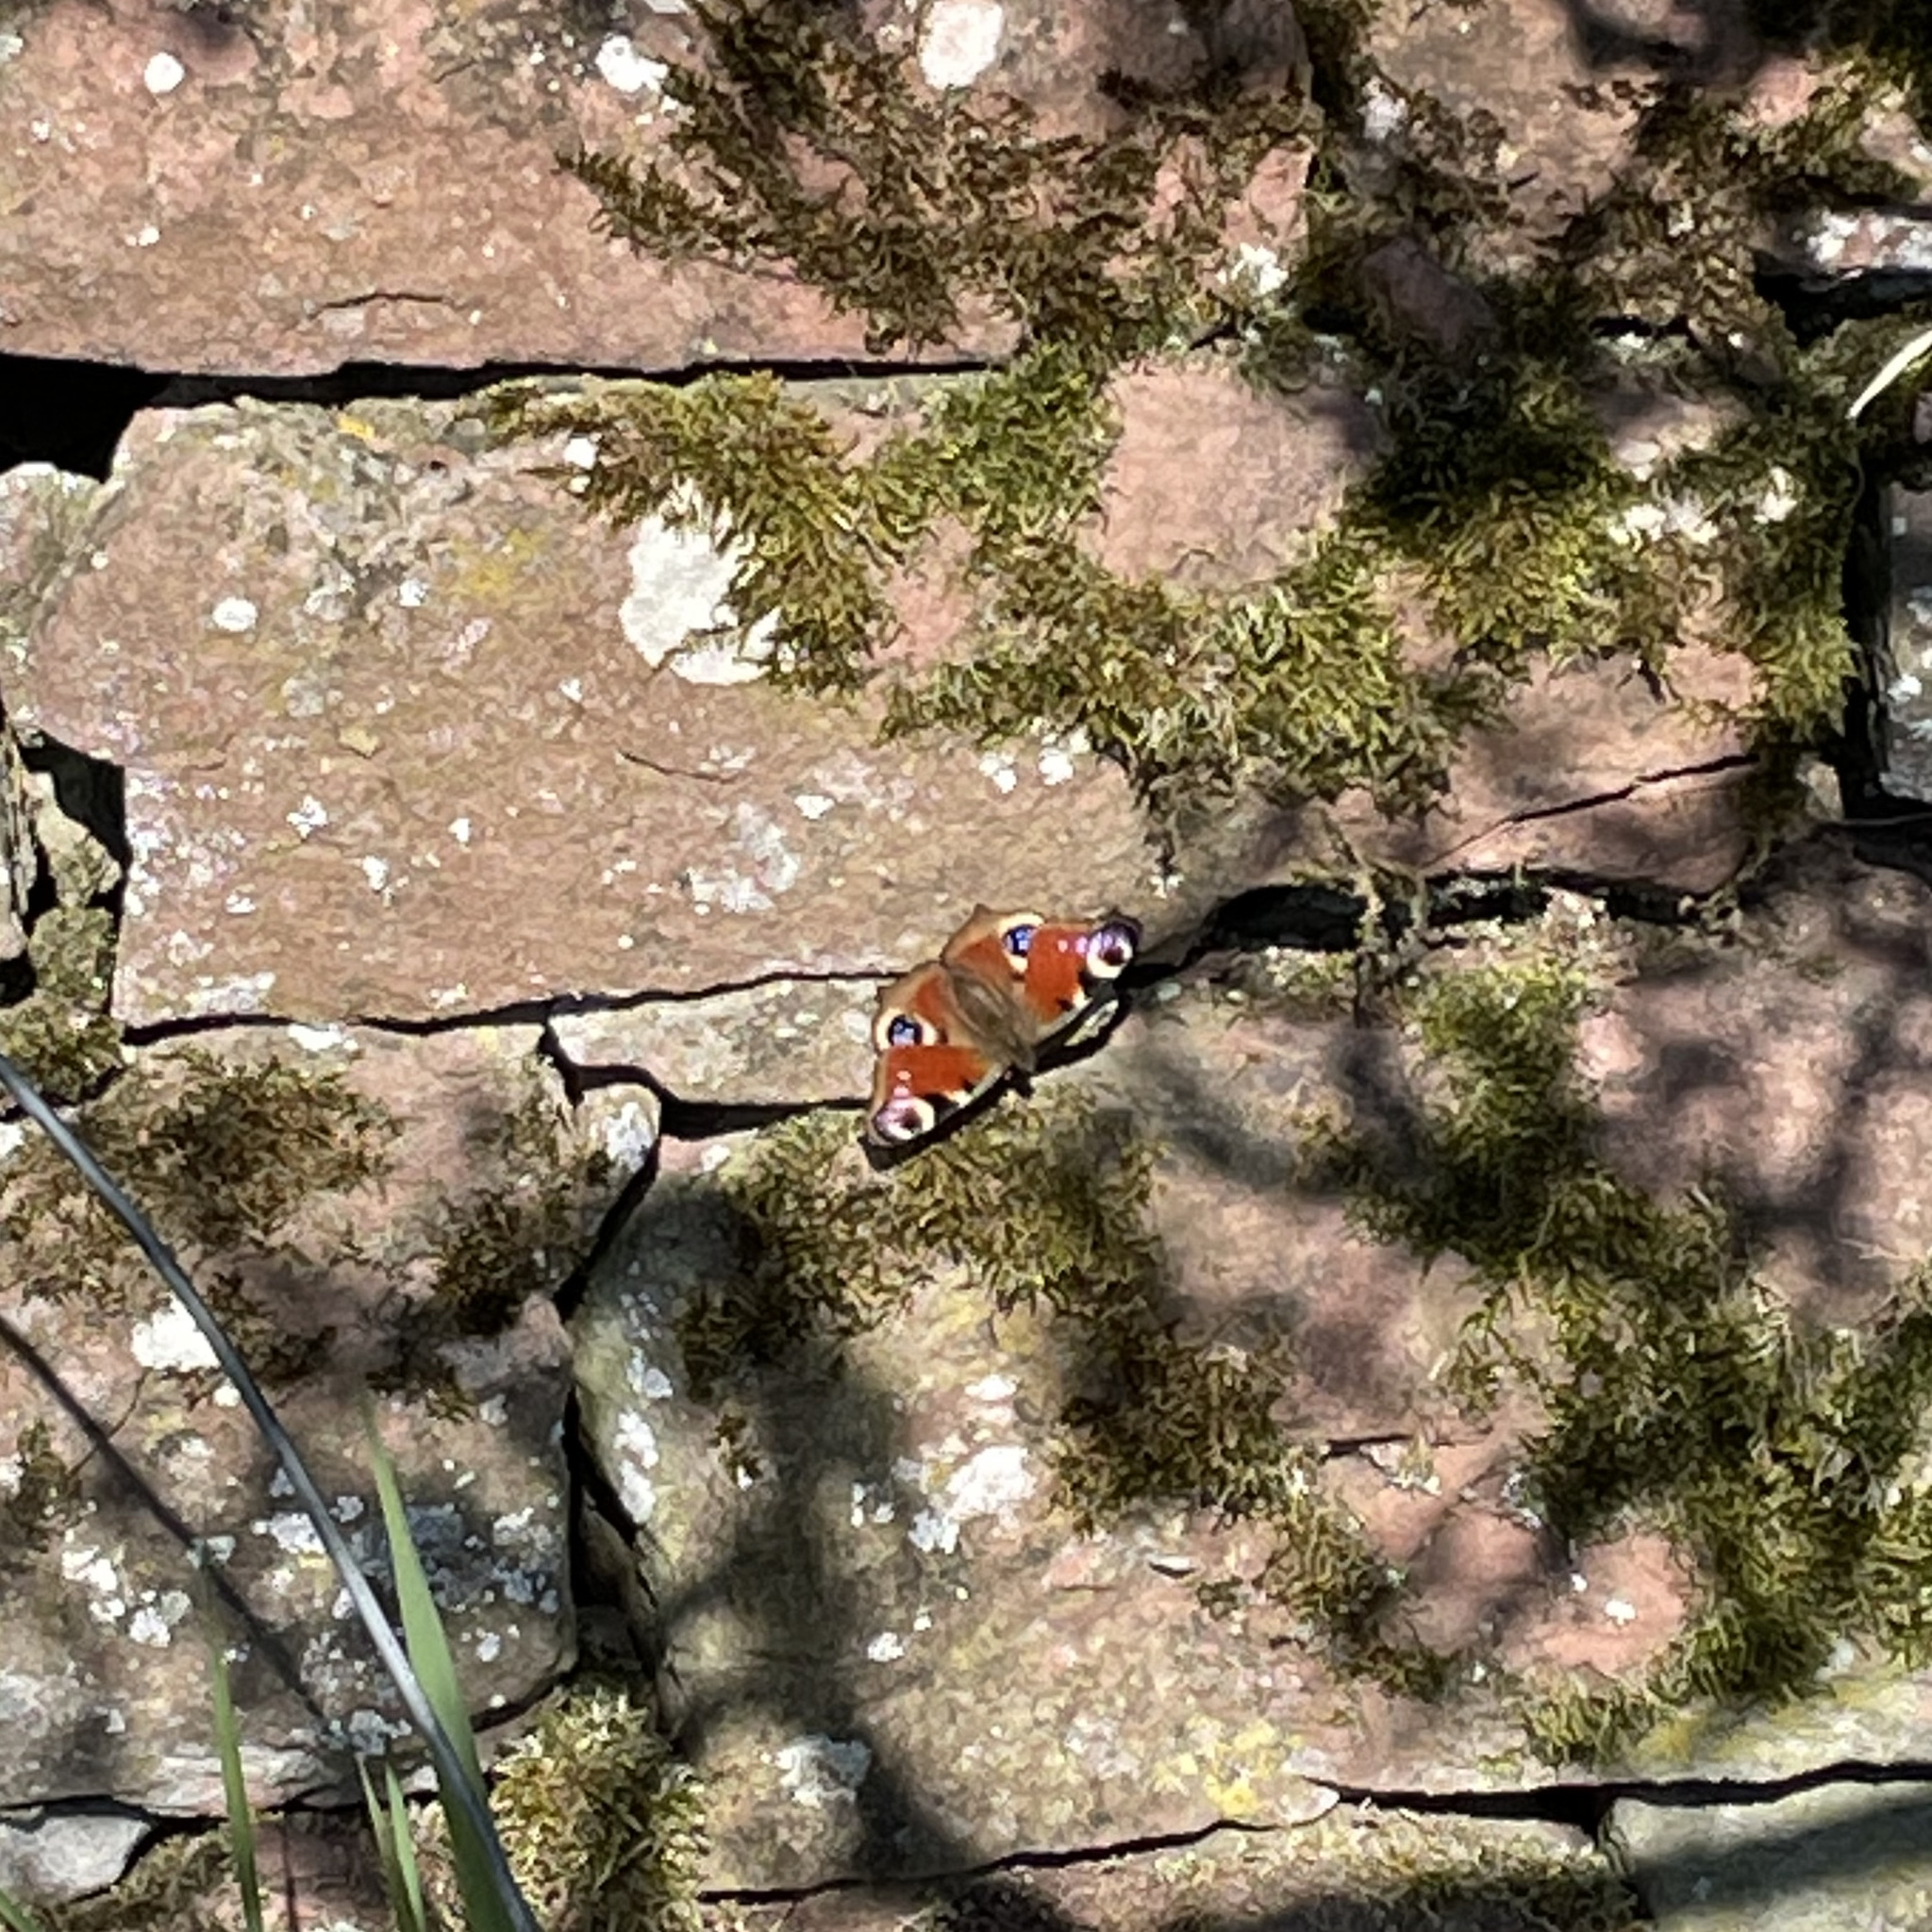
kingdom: Animalia
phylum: Arthropoda
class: Insecta
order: Lepidoptera
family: Nymphalidae
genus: Aglais
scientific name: Aglais io
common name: Peacock
